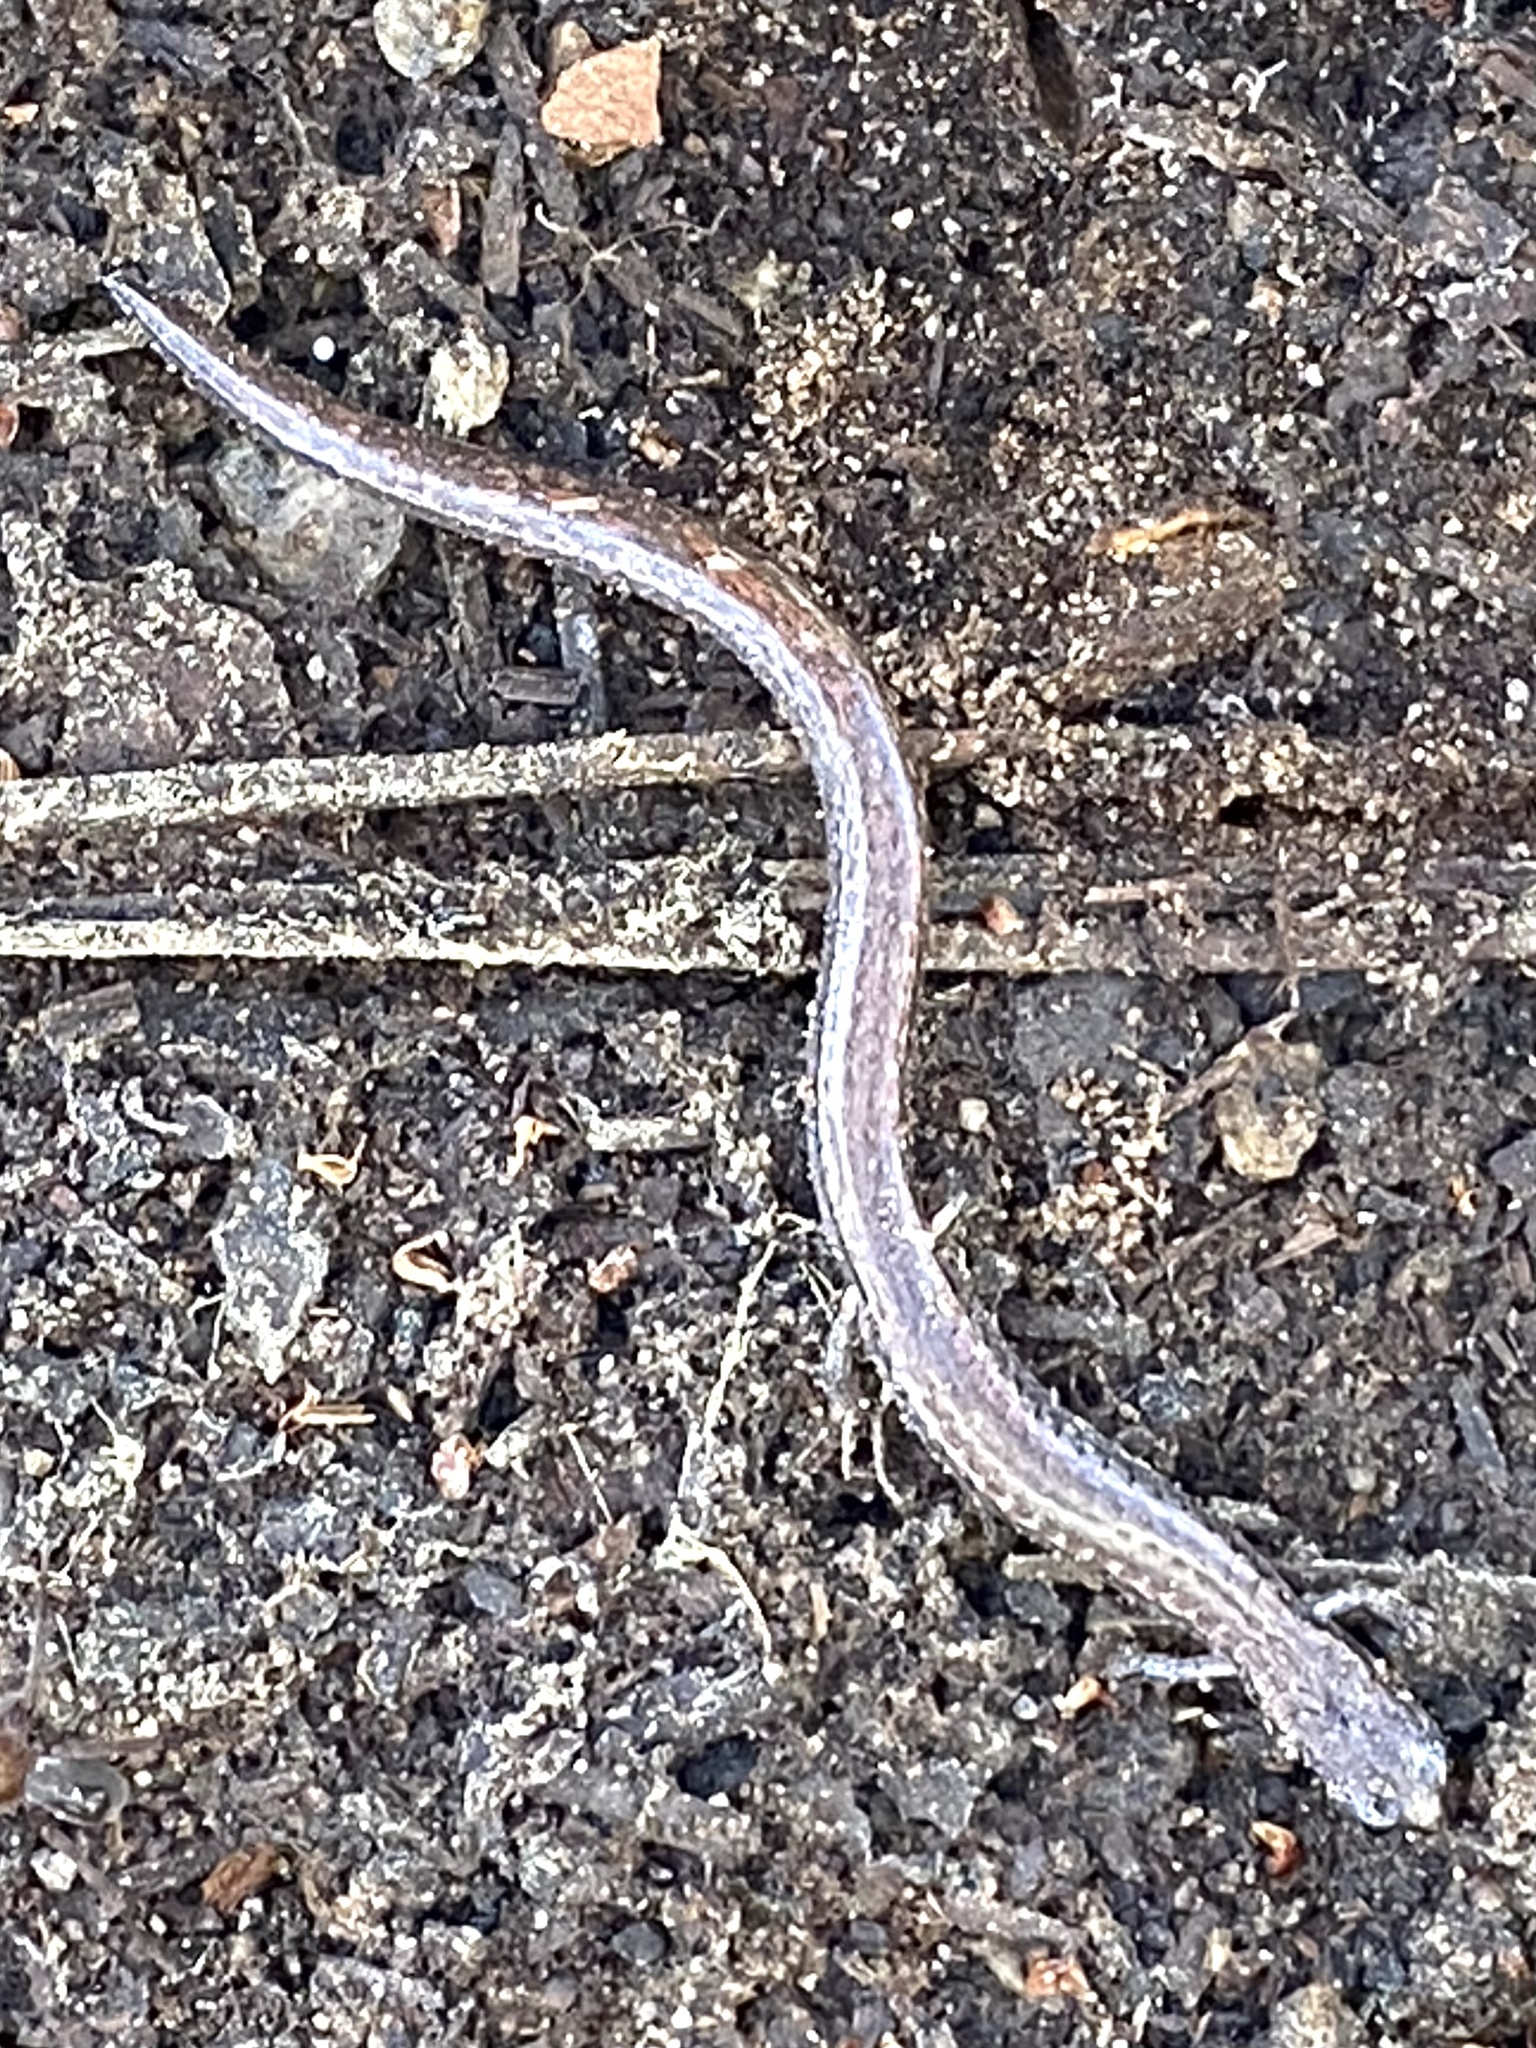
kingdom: Animalia
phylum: Chordata
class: Amphibia
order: Caudata
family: Plethodontidae
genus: Batrachoseps
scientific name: Batrachoseps major
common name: Garden slender salamander
